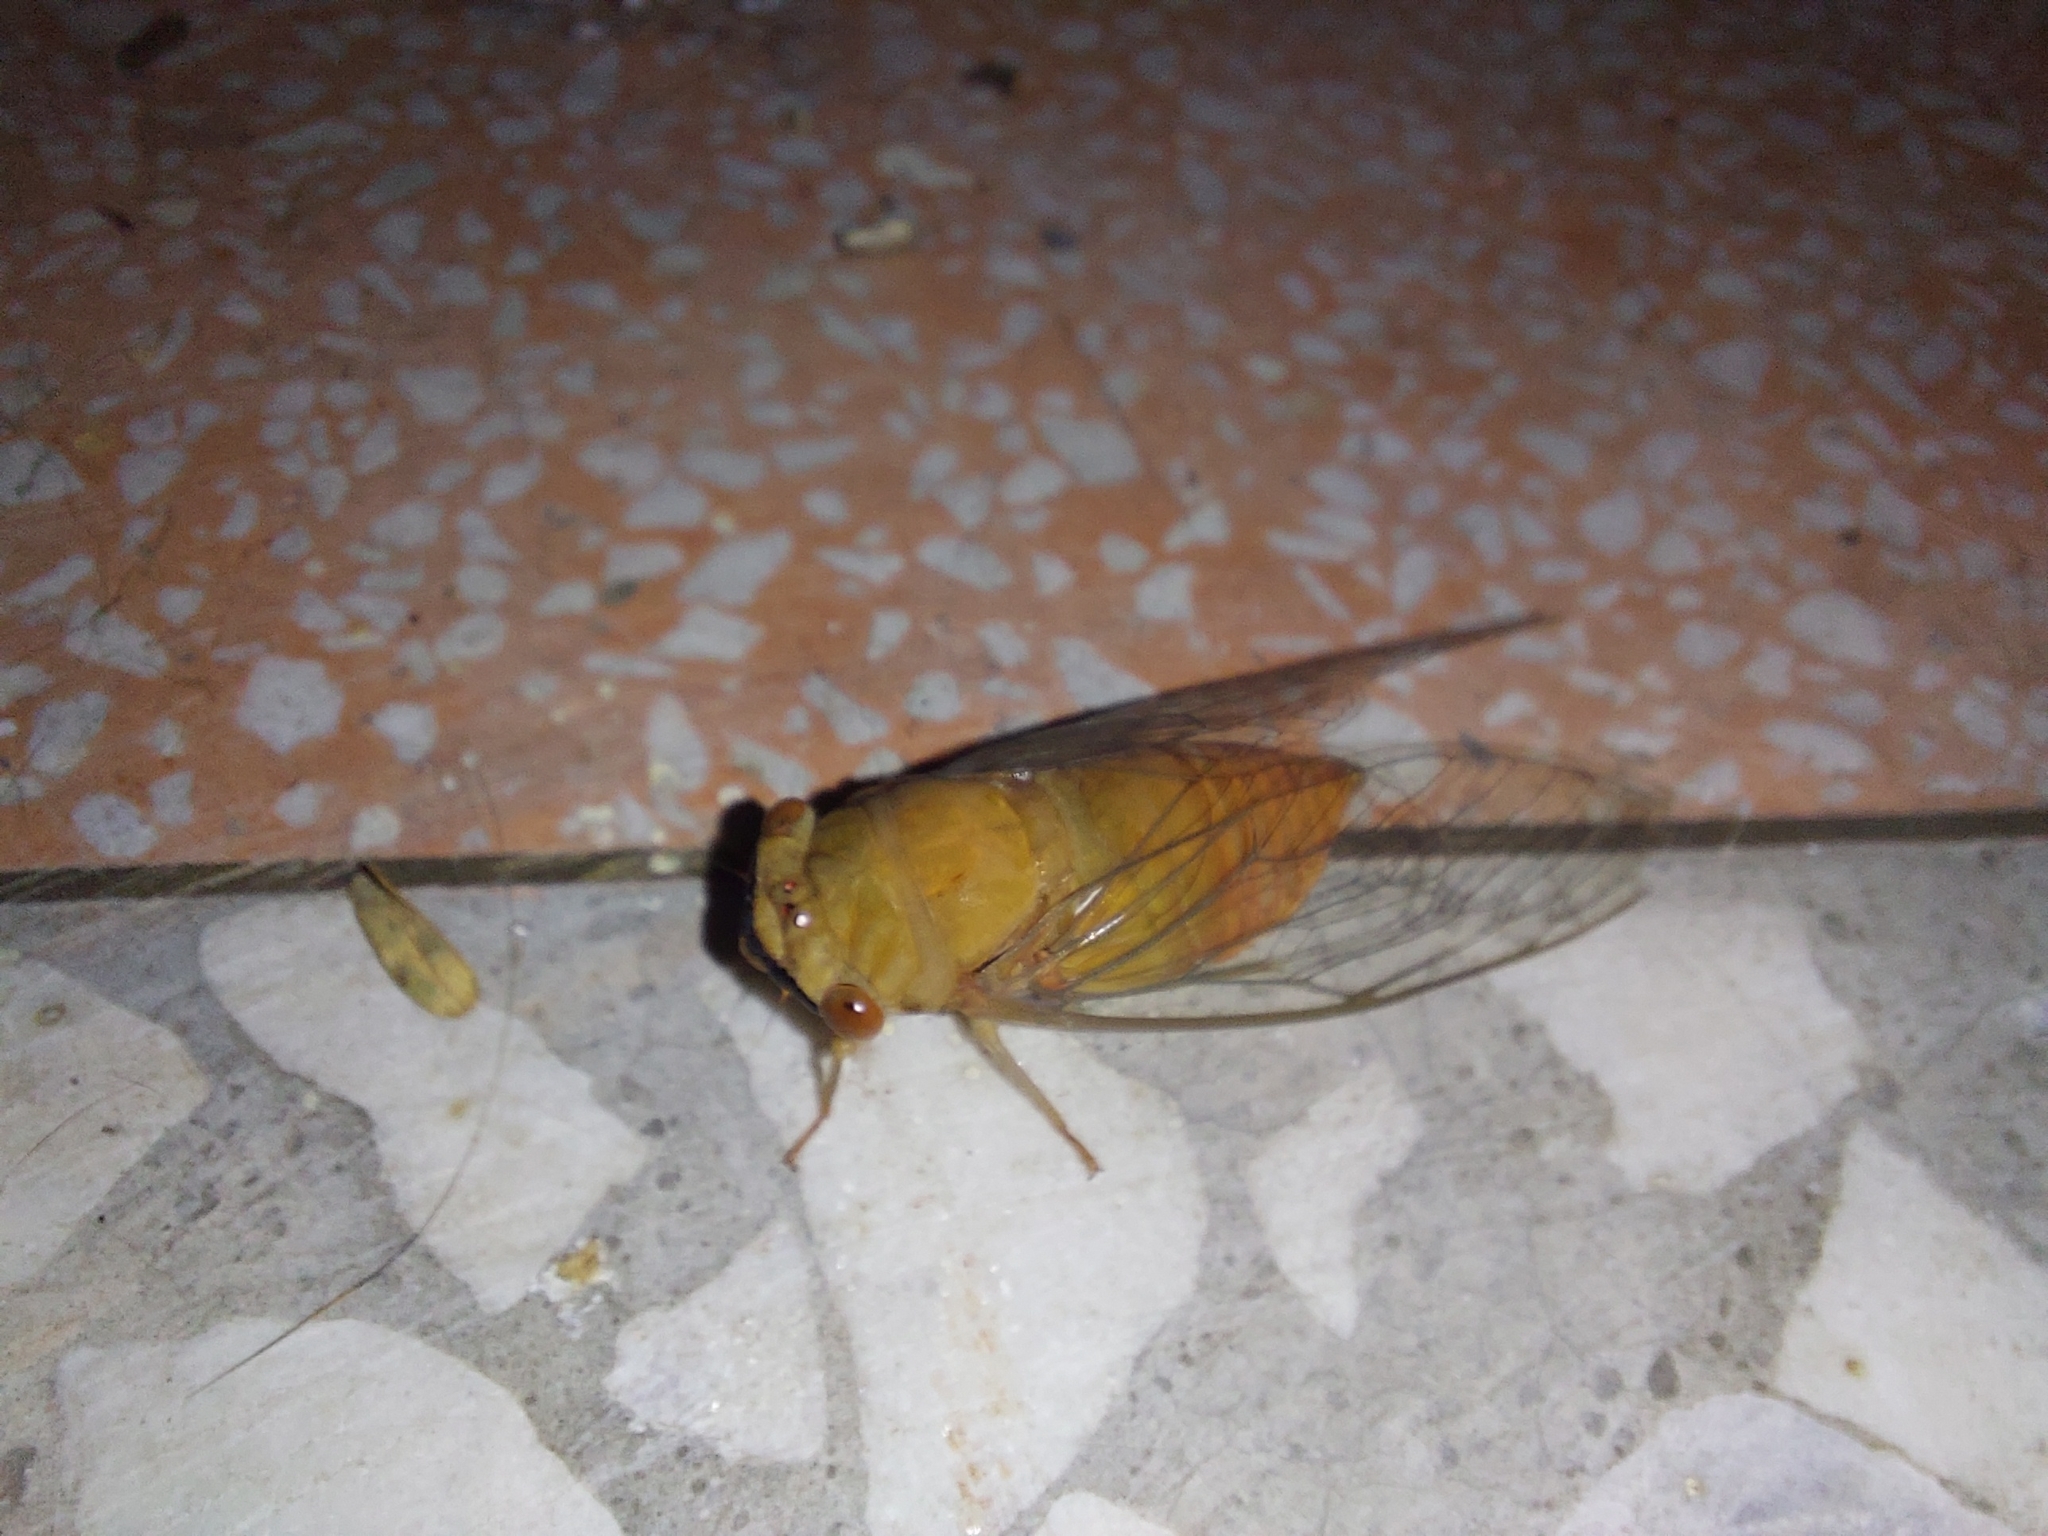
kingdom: Animalia
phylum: Arthropoda
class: Insecta
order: Hemiptera
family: Cicadidae
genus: Chremistica
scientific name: Chremistica ochracea
